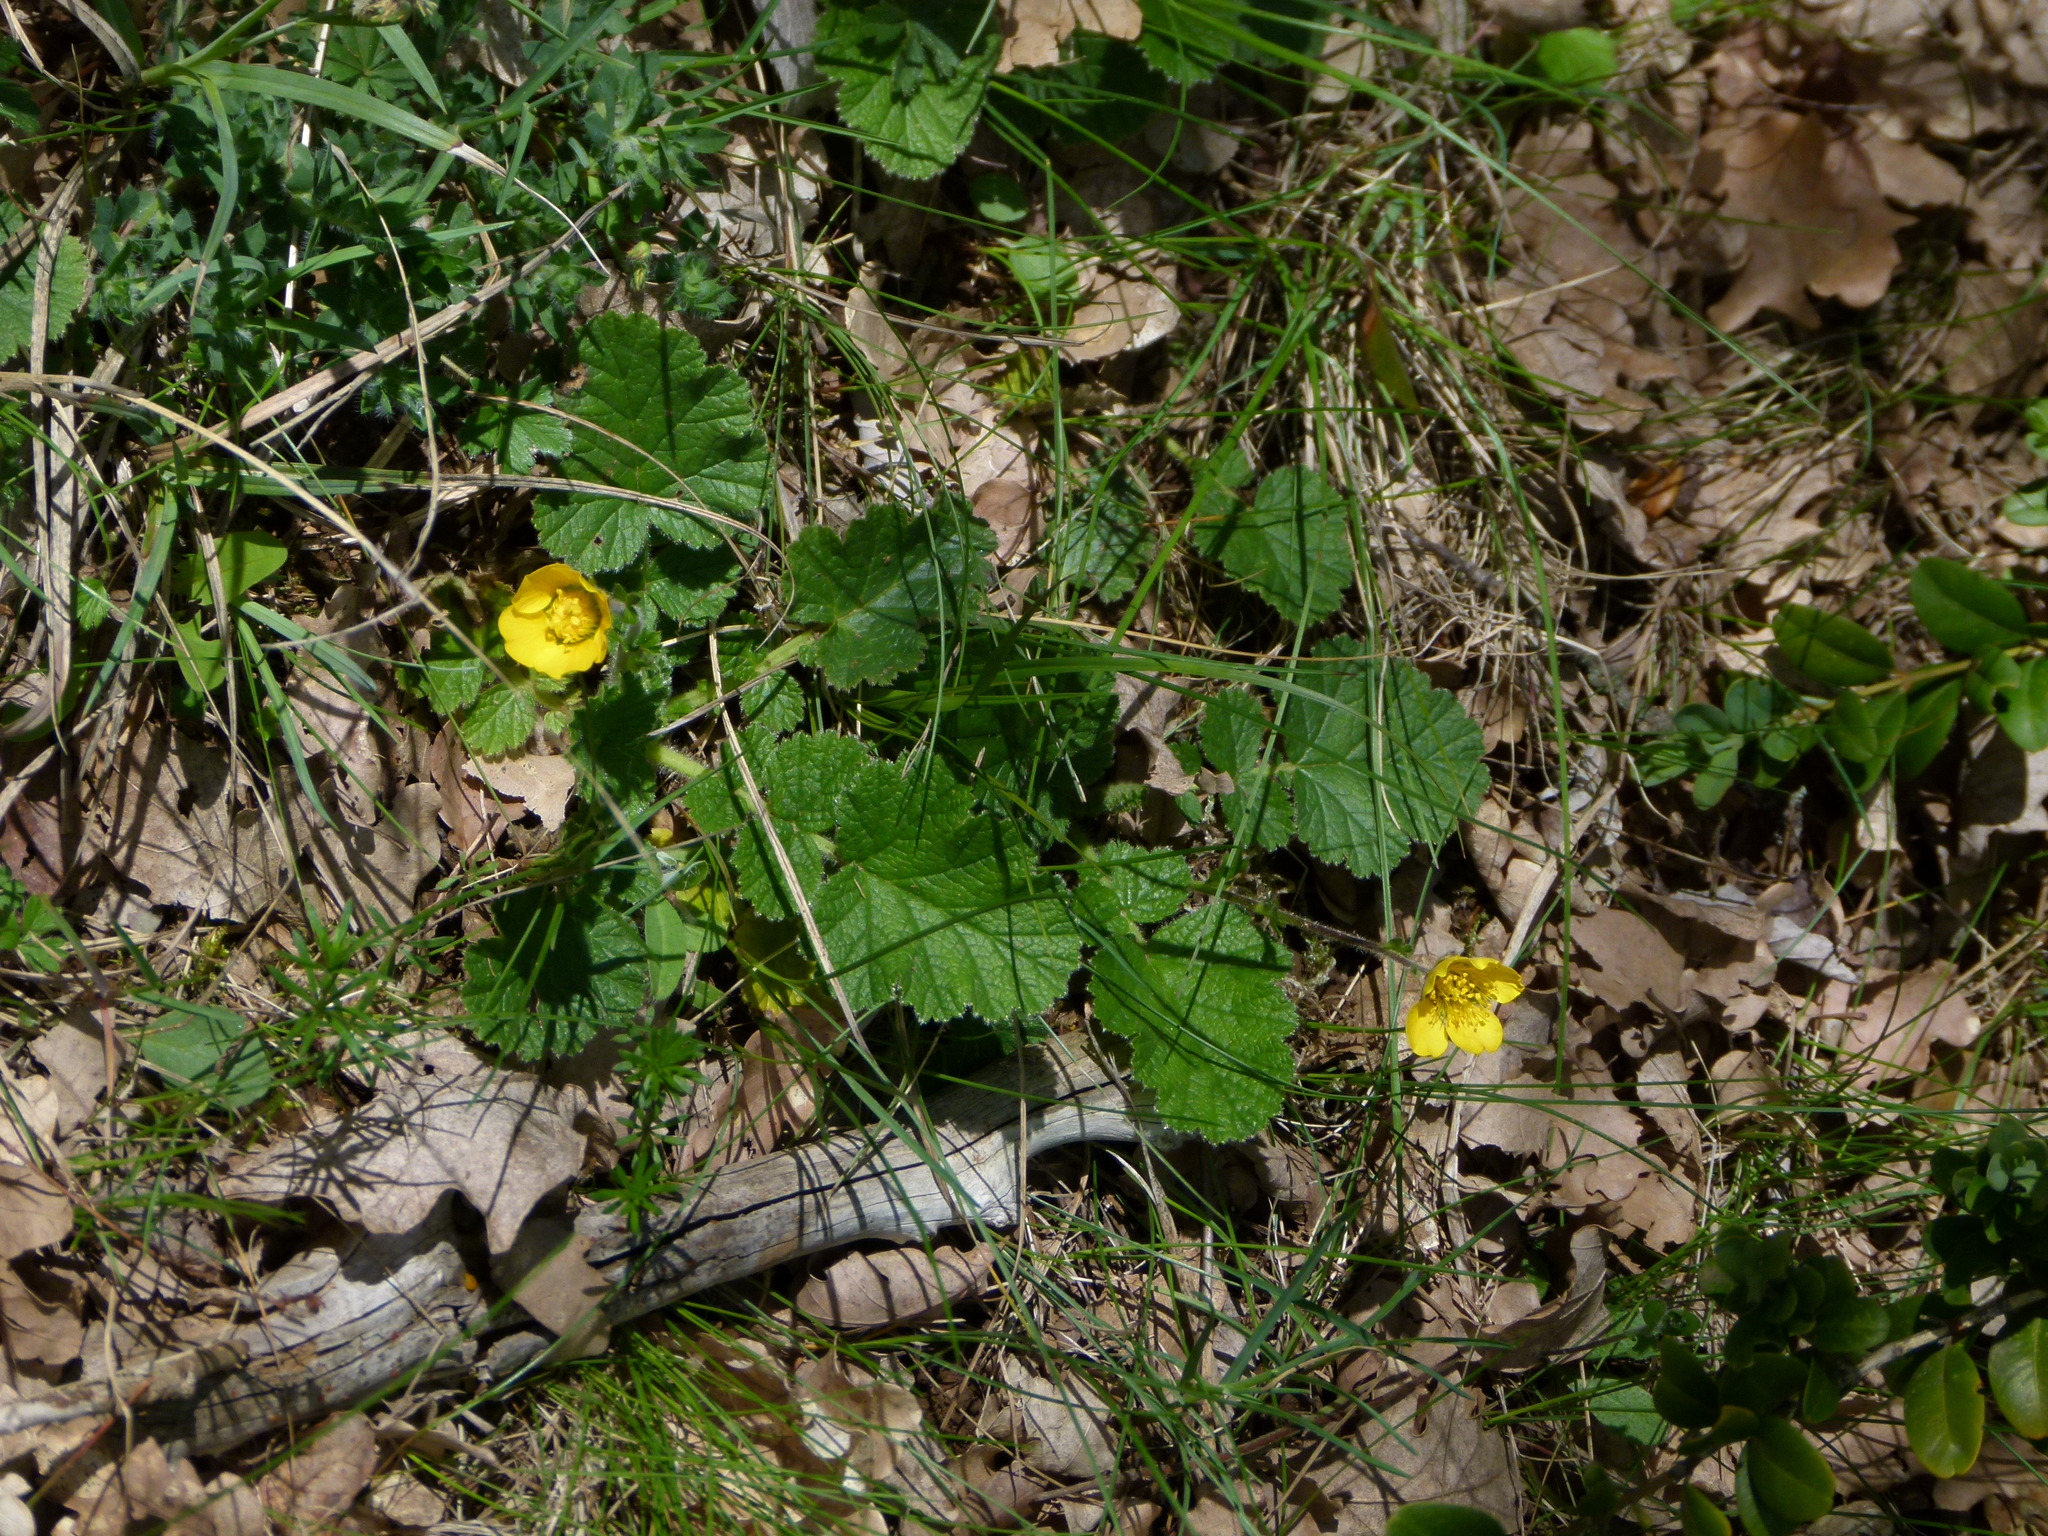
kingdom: Plantae
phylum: Tracheophyta
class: Magnoliopsida
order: Rosales
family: Rosaceae
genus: Geum
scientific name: Geum sylvaticum
